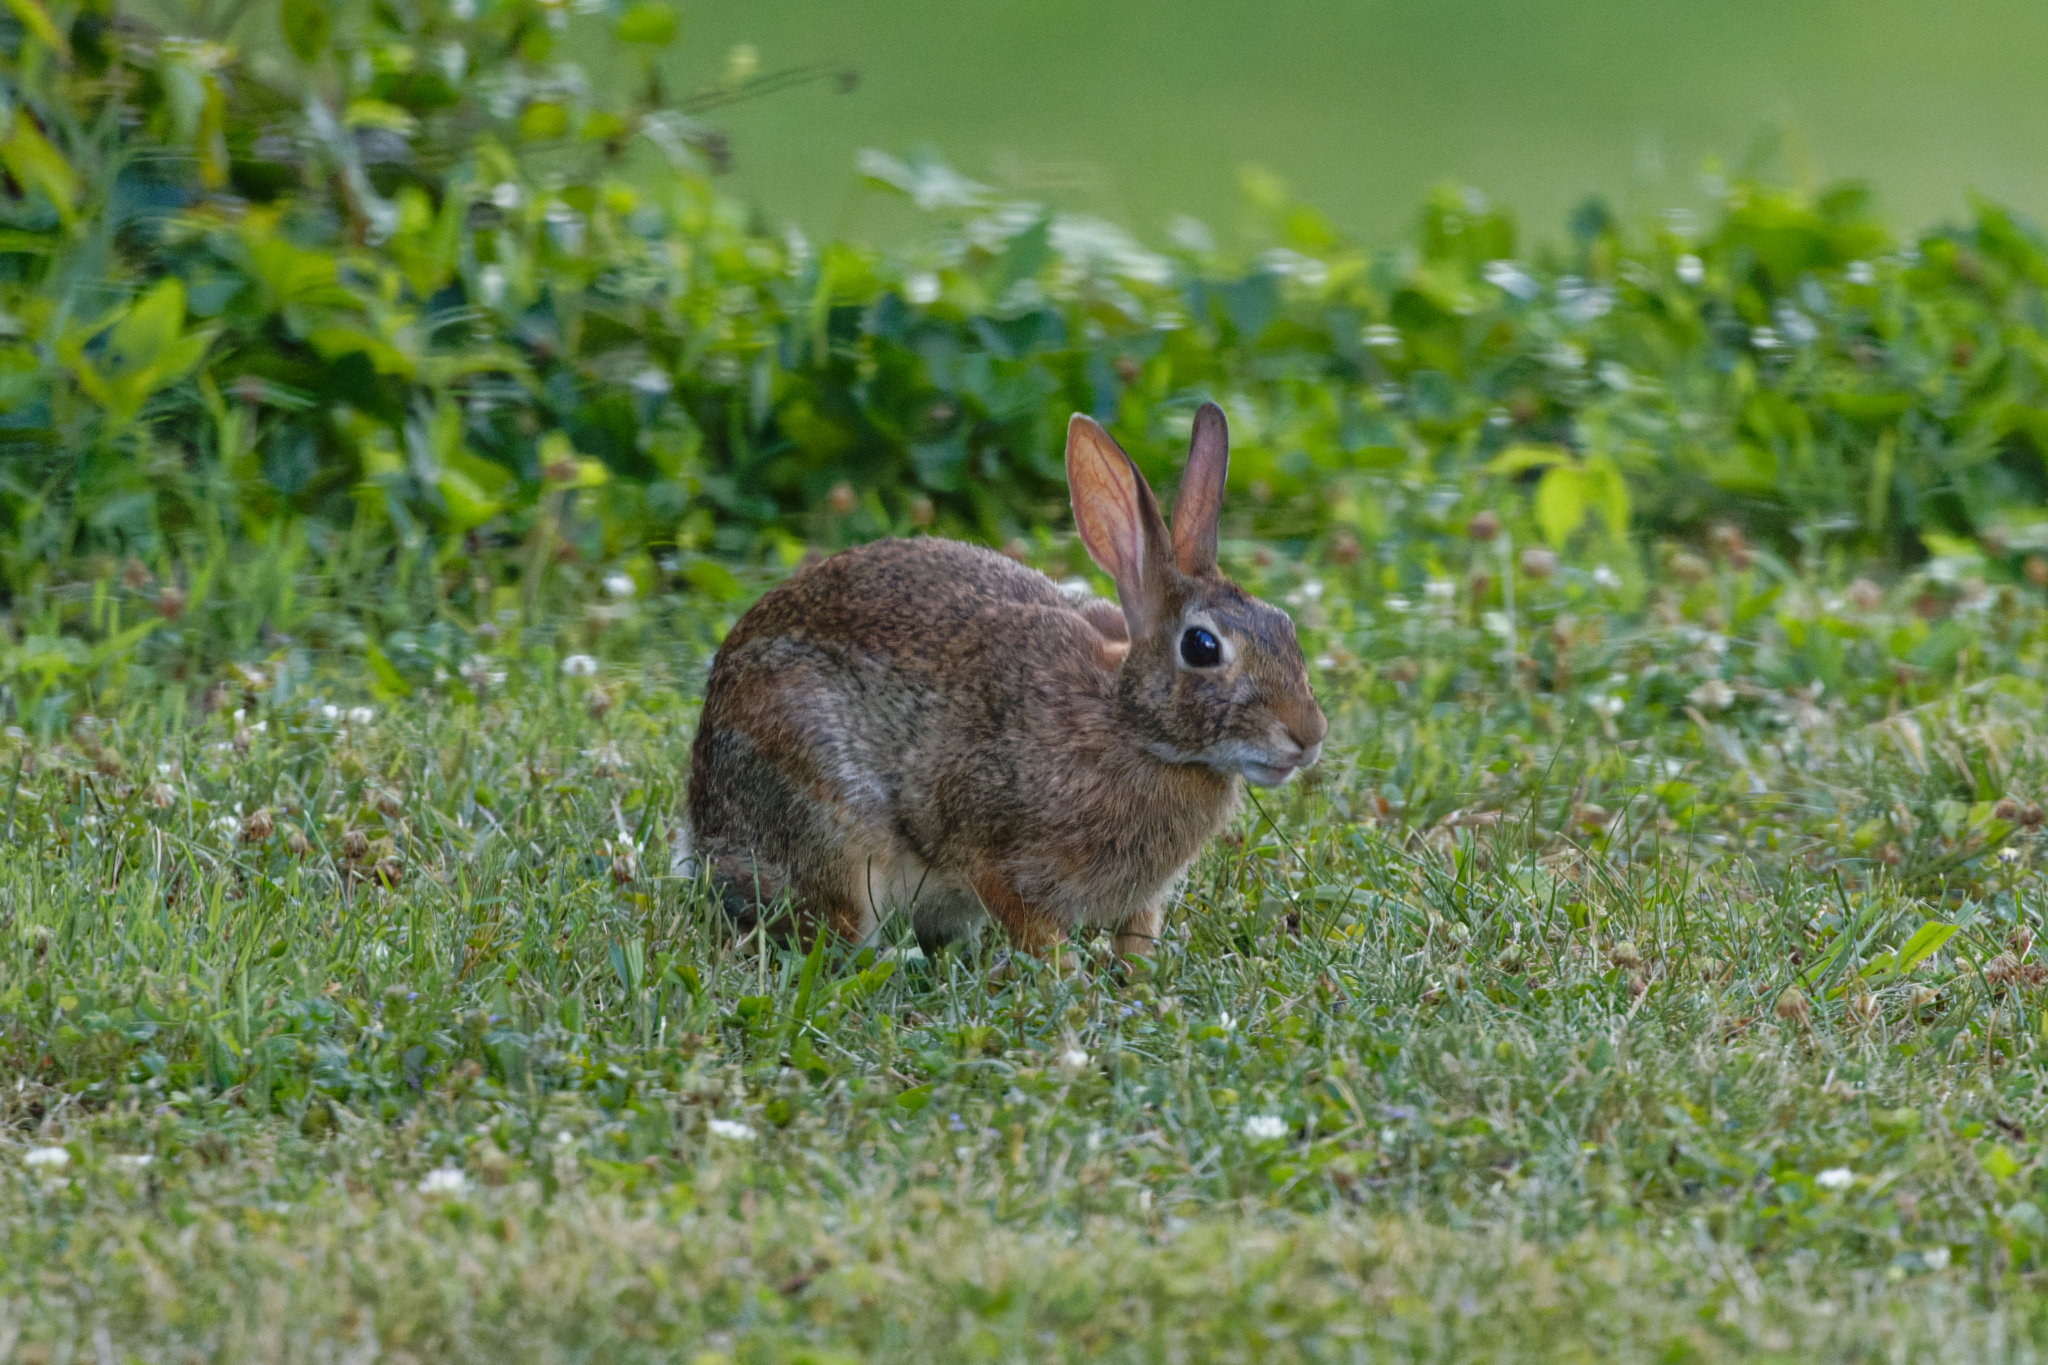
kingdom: Animalia
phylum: Chordata
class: Mammalia
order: Lagomorpha
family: Leporidae
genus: Sylvilagus
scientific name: Sylvilagus floridanus
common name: Eastern cottontail
